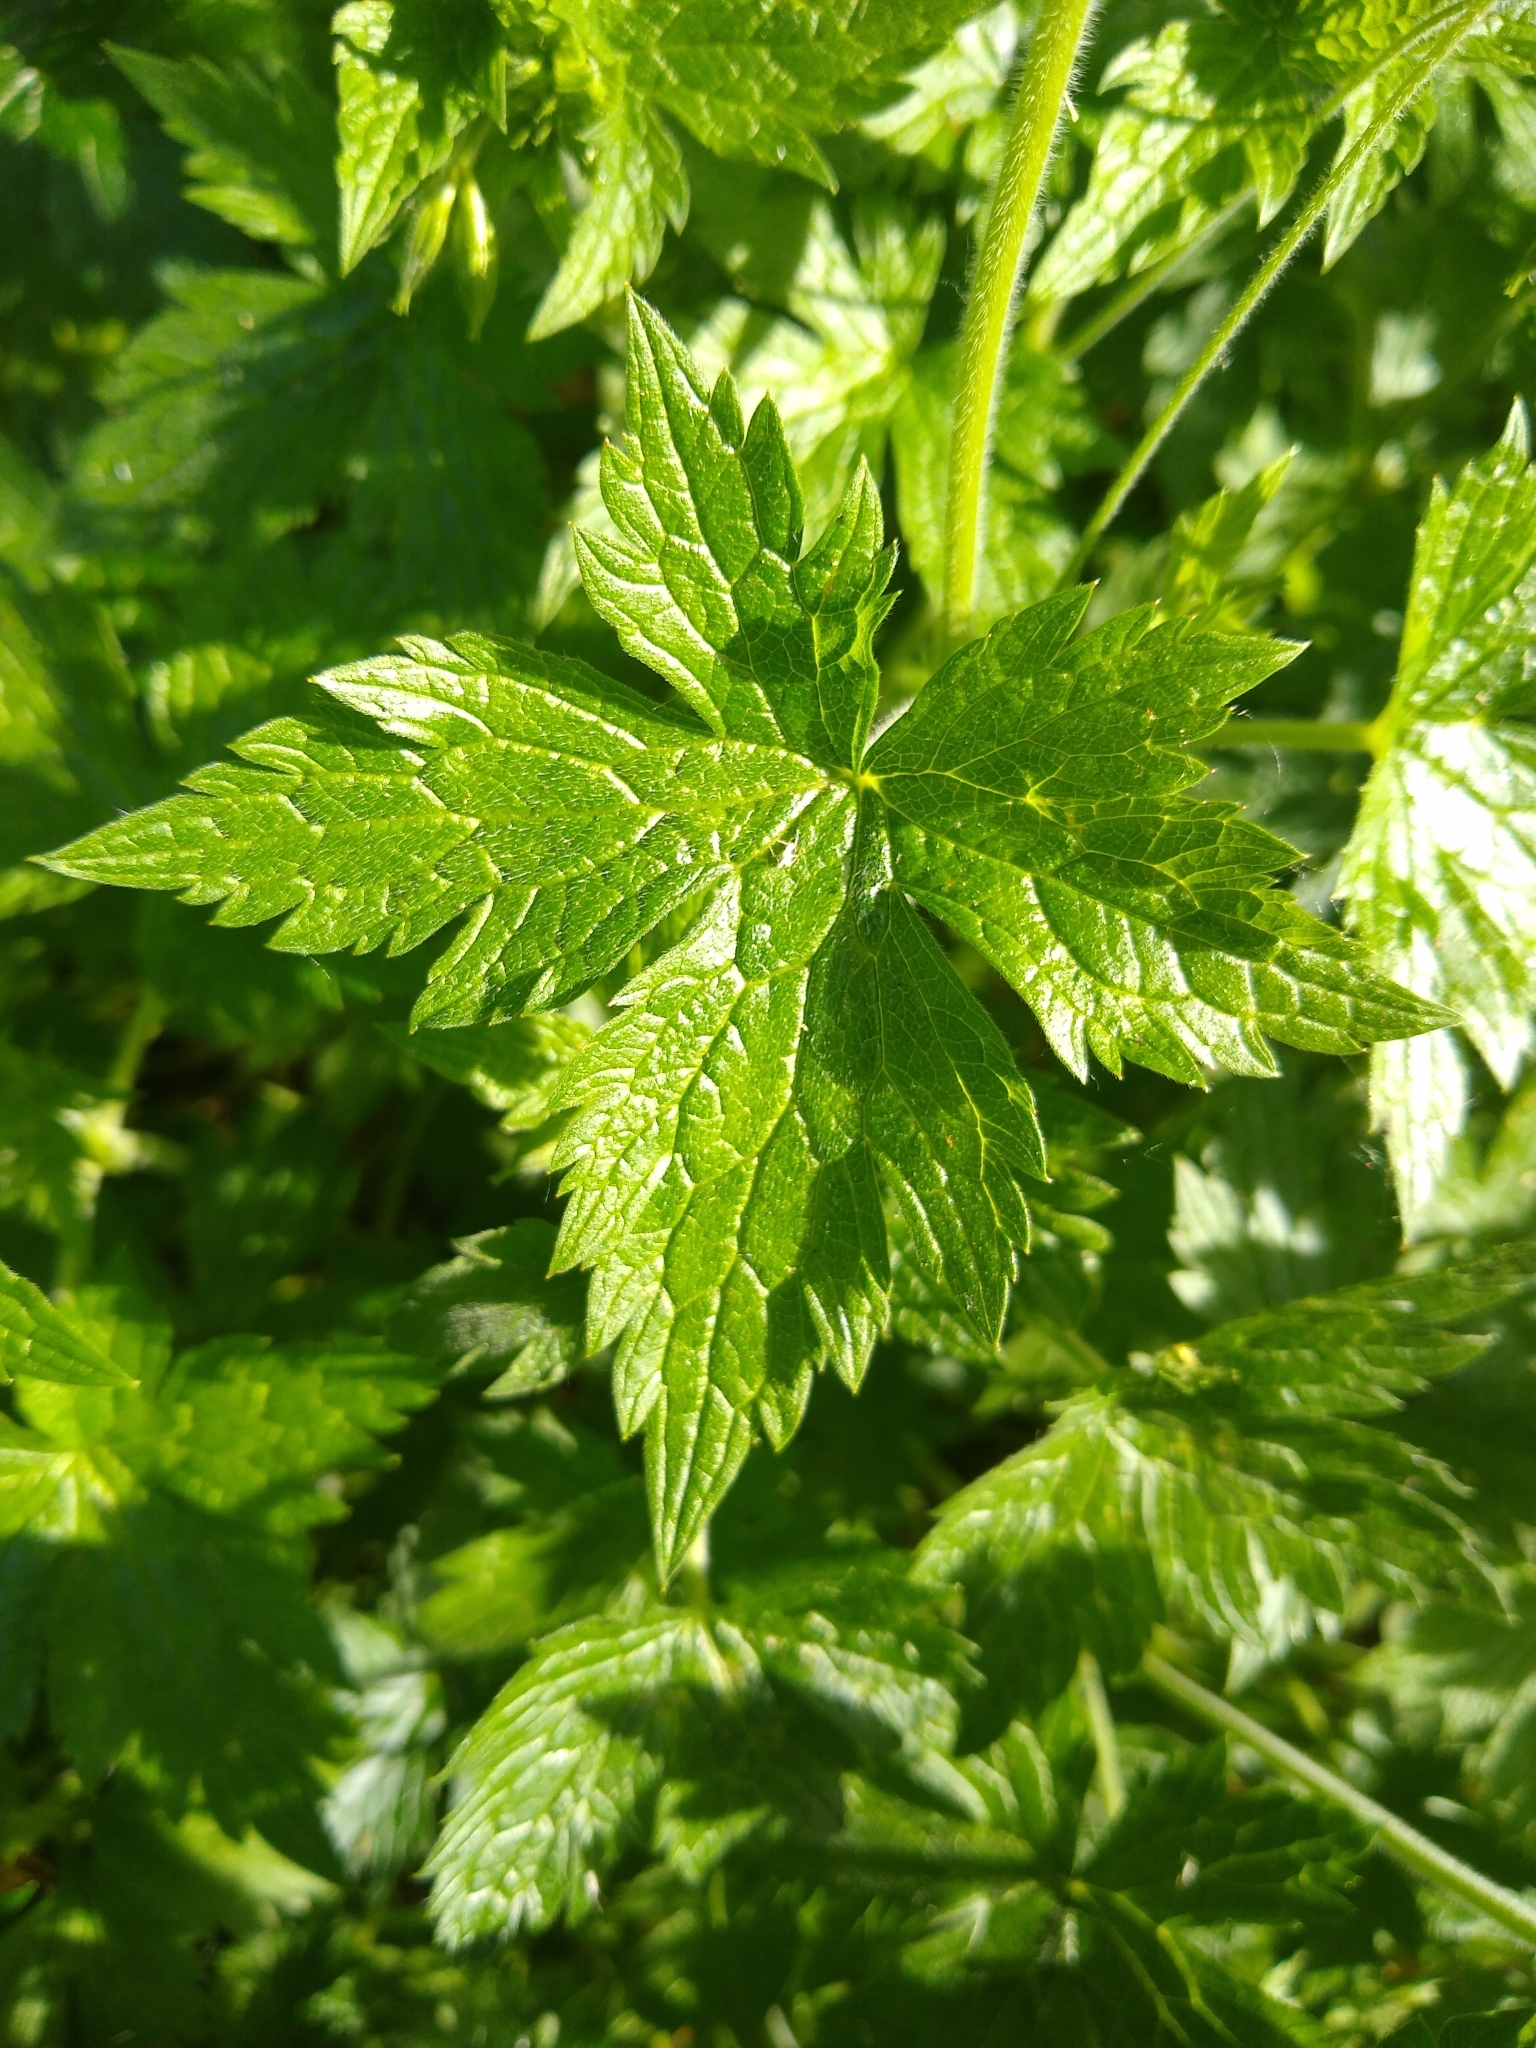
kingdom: Plantae
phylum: Tracheophyta
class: Magnoliopsida
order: Geraniales
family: Geraniaceae
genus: Geranium
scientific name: Geranium oxonianum
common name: Druce's crane's-bill
